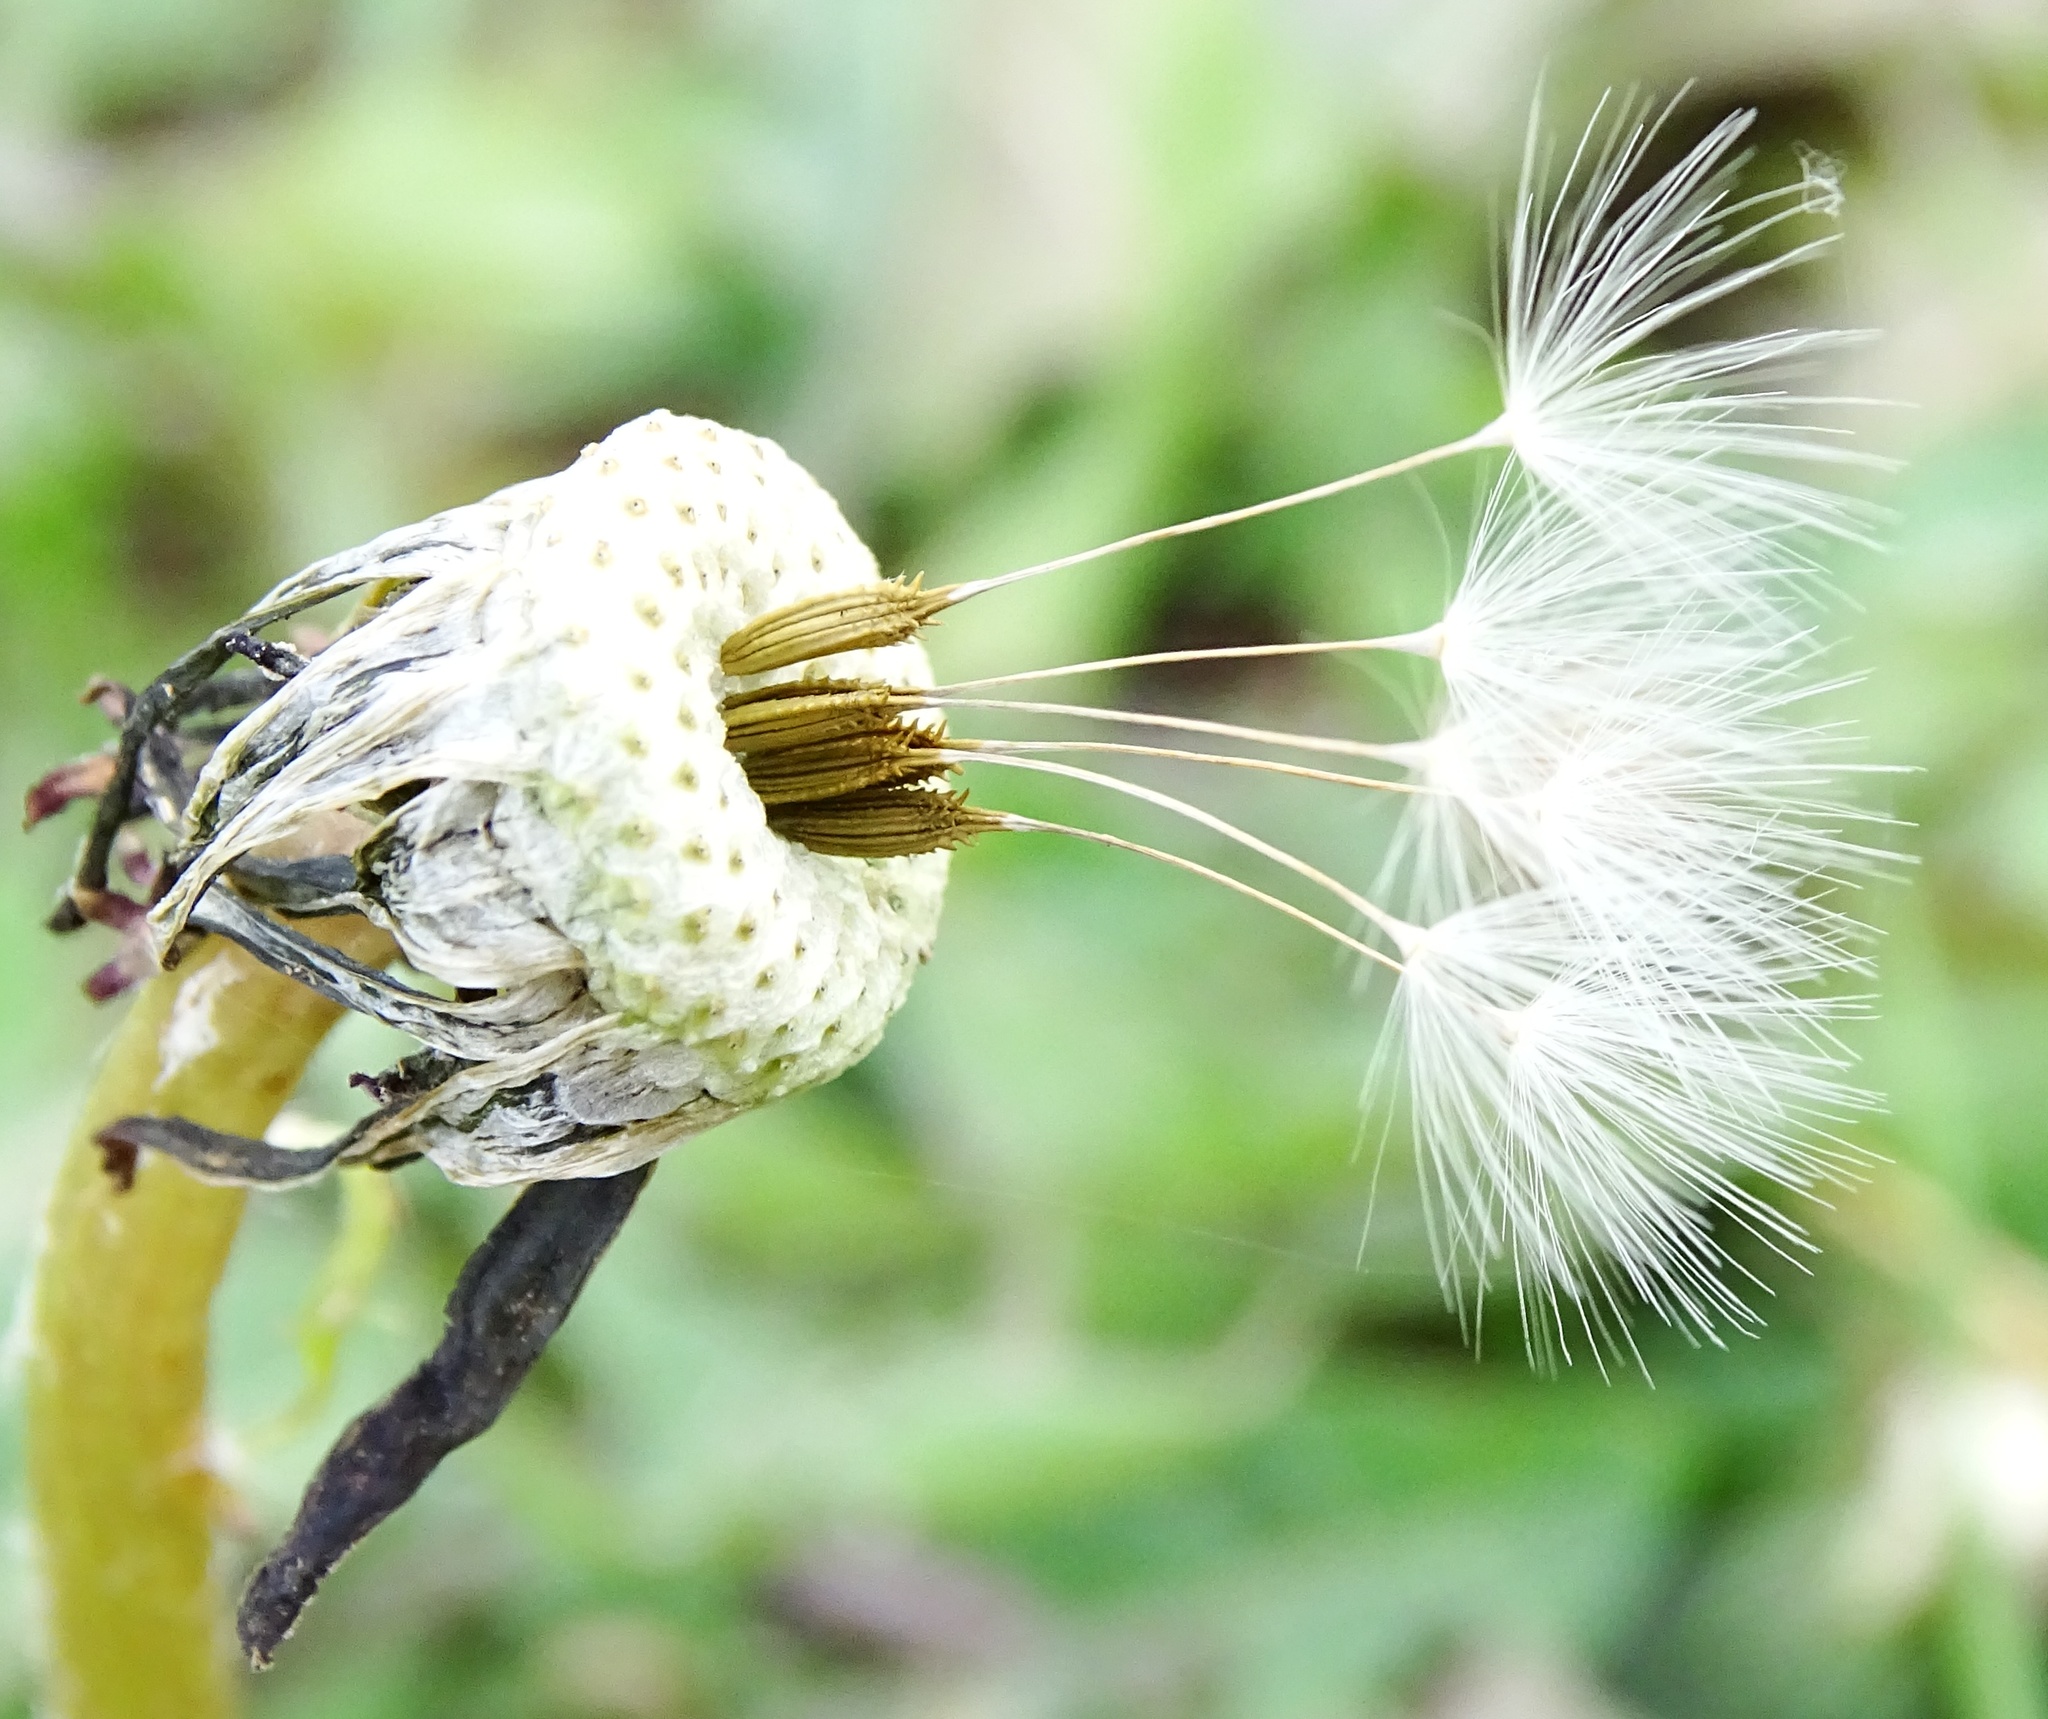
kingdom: Plantae
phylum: Tracheophyta
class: Magnoliopsida
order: Asterales
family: Asteraceae
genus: Taraxacum
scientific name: Taraxacum officinale
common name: Common dandelion
